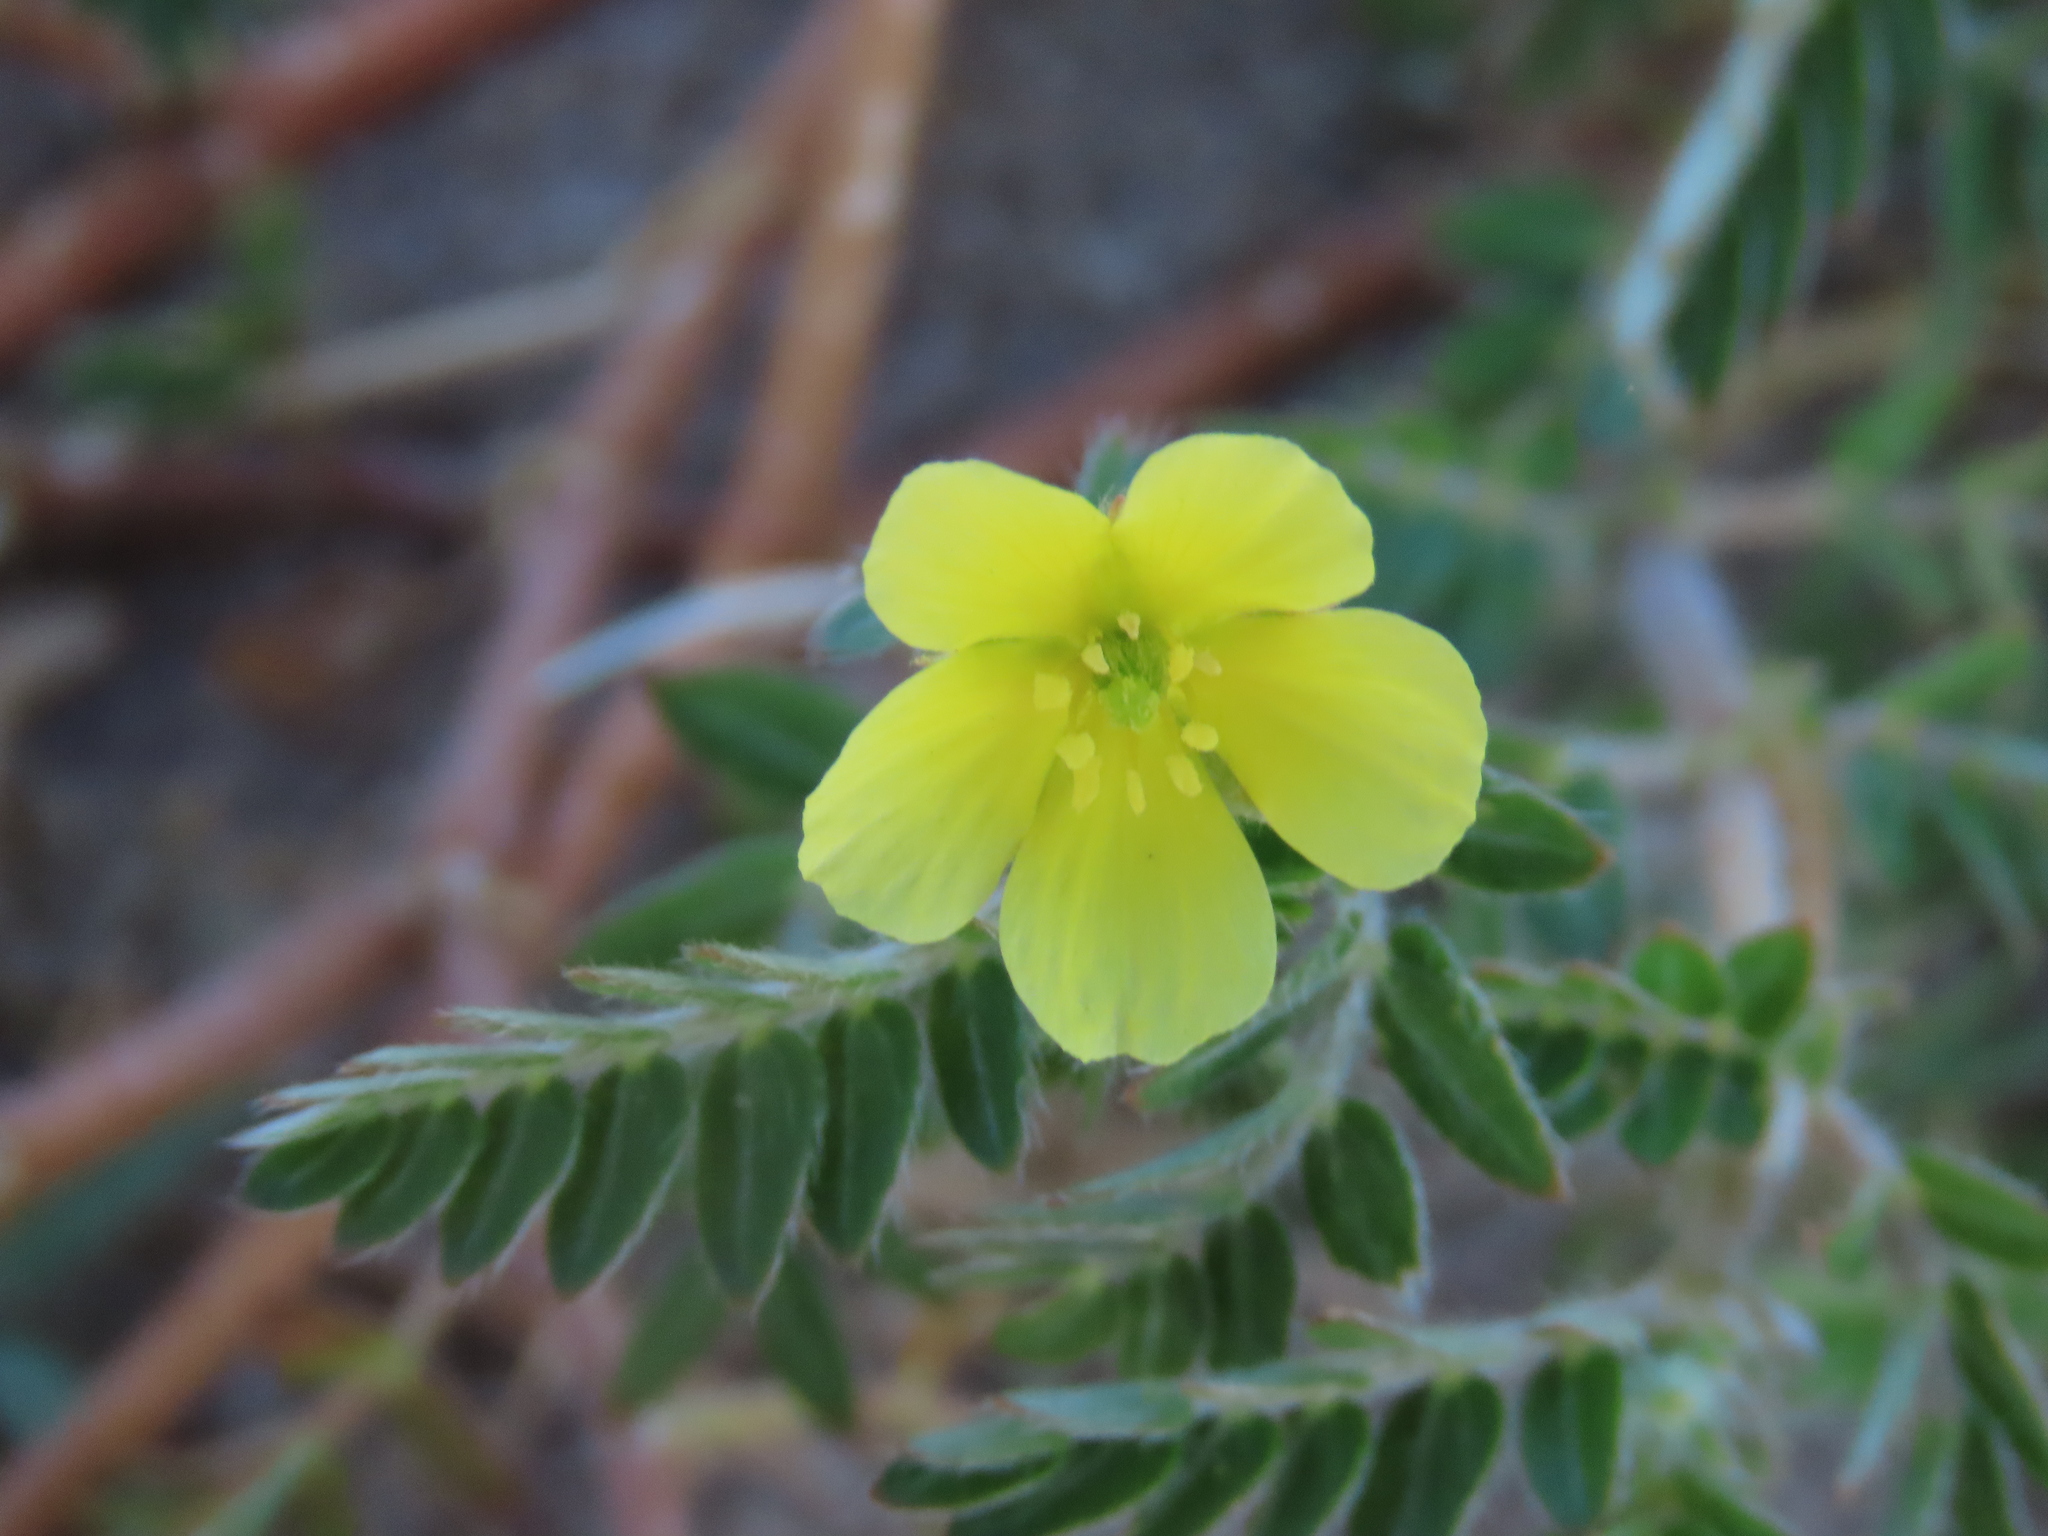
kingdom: Plantae
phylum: Tracheophyta
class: Magnoliopsida
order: Zygophyllales
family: Zygophyllaceae
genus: Tribulus
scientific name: Tribulus terrestris
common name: Puncturevine
